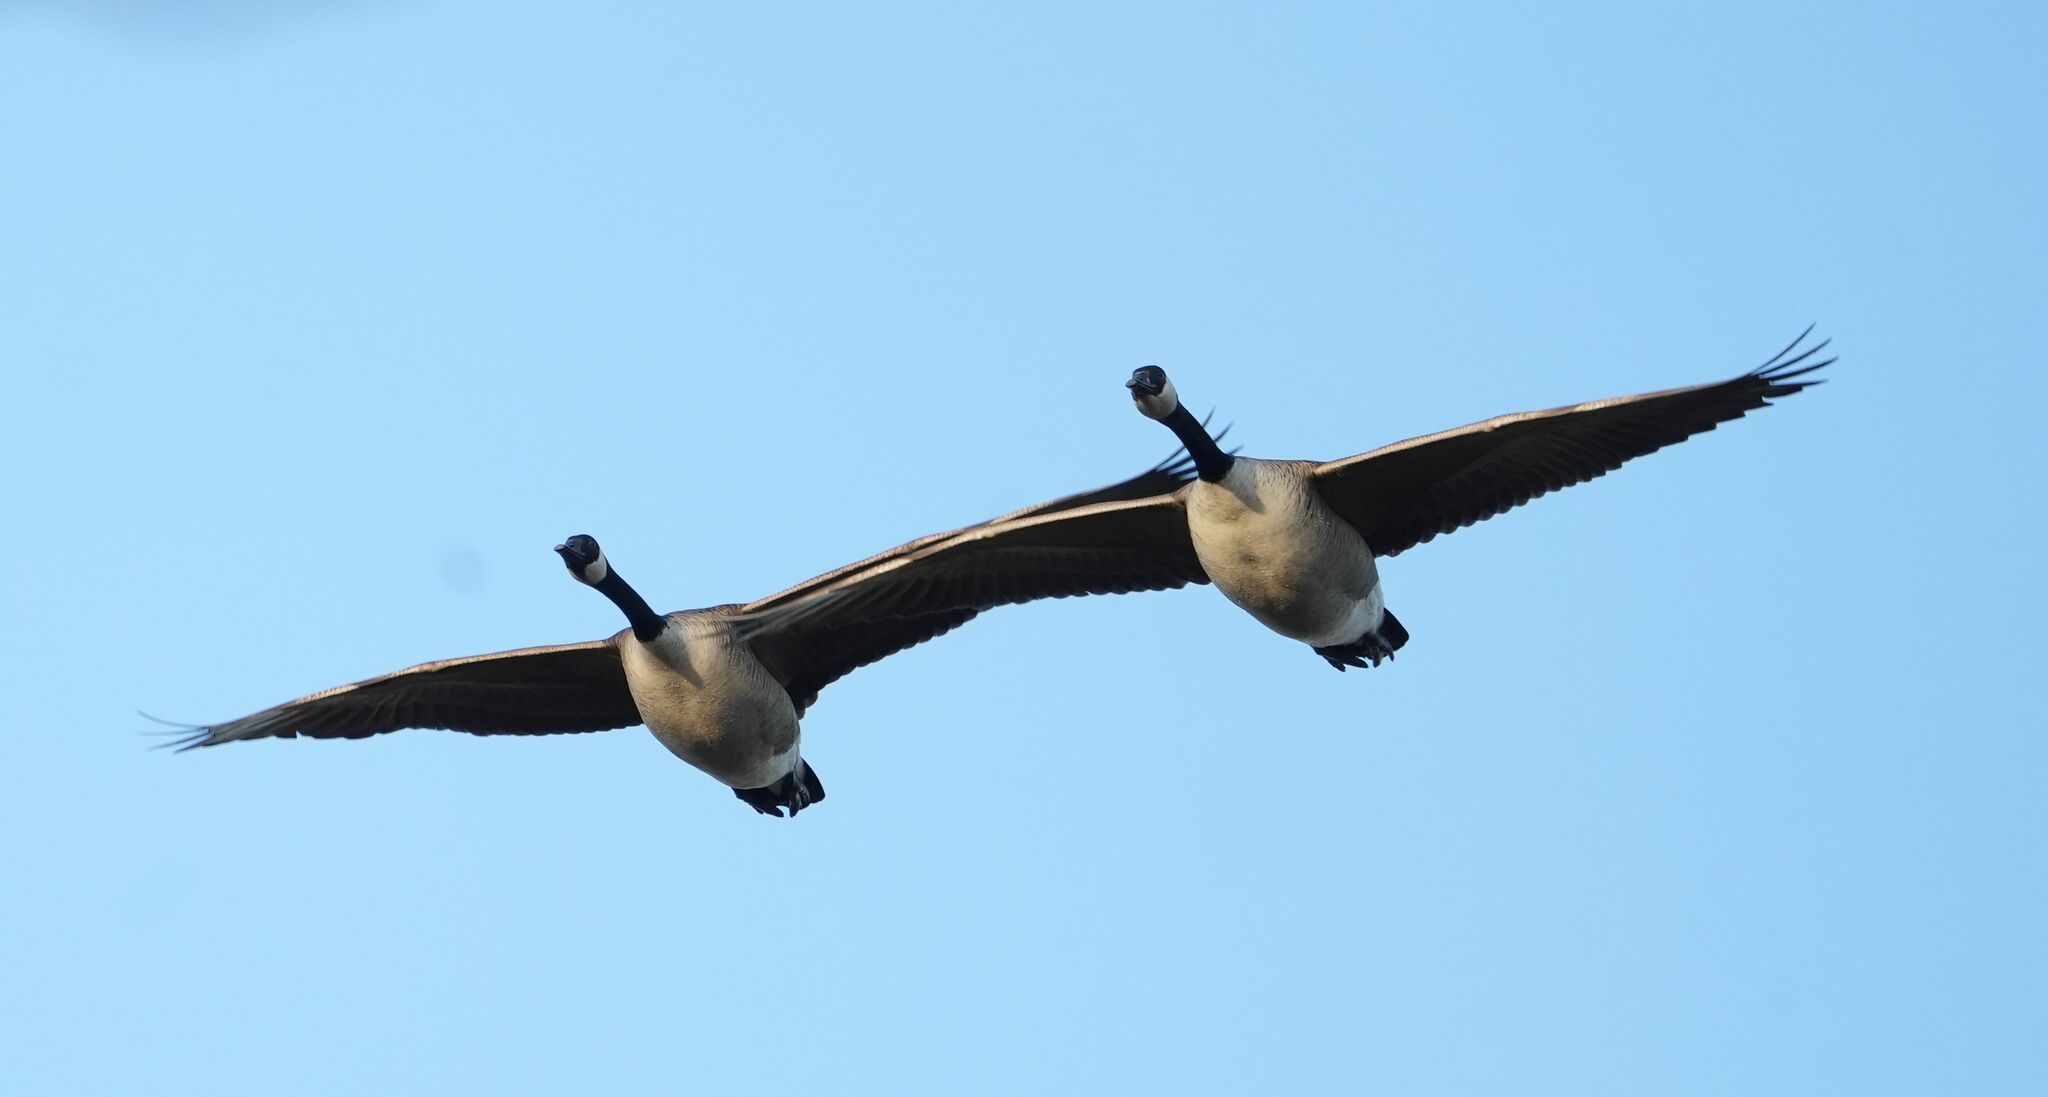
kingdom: Animalia
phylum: Chordata
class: Aves
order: Anseriformes
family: Anatidae
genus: Branta
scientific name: Branta canadensis
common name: Canada goose
